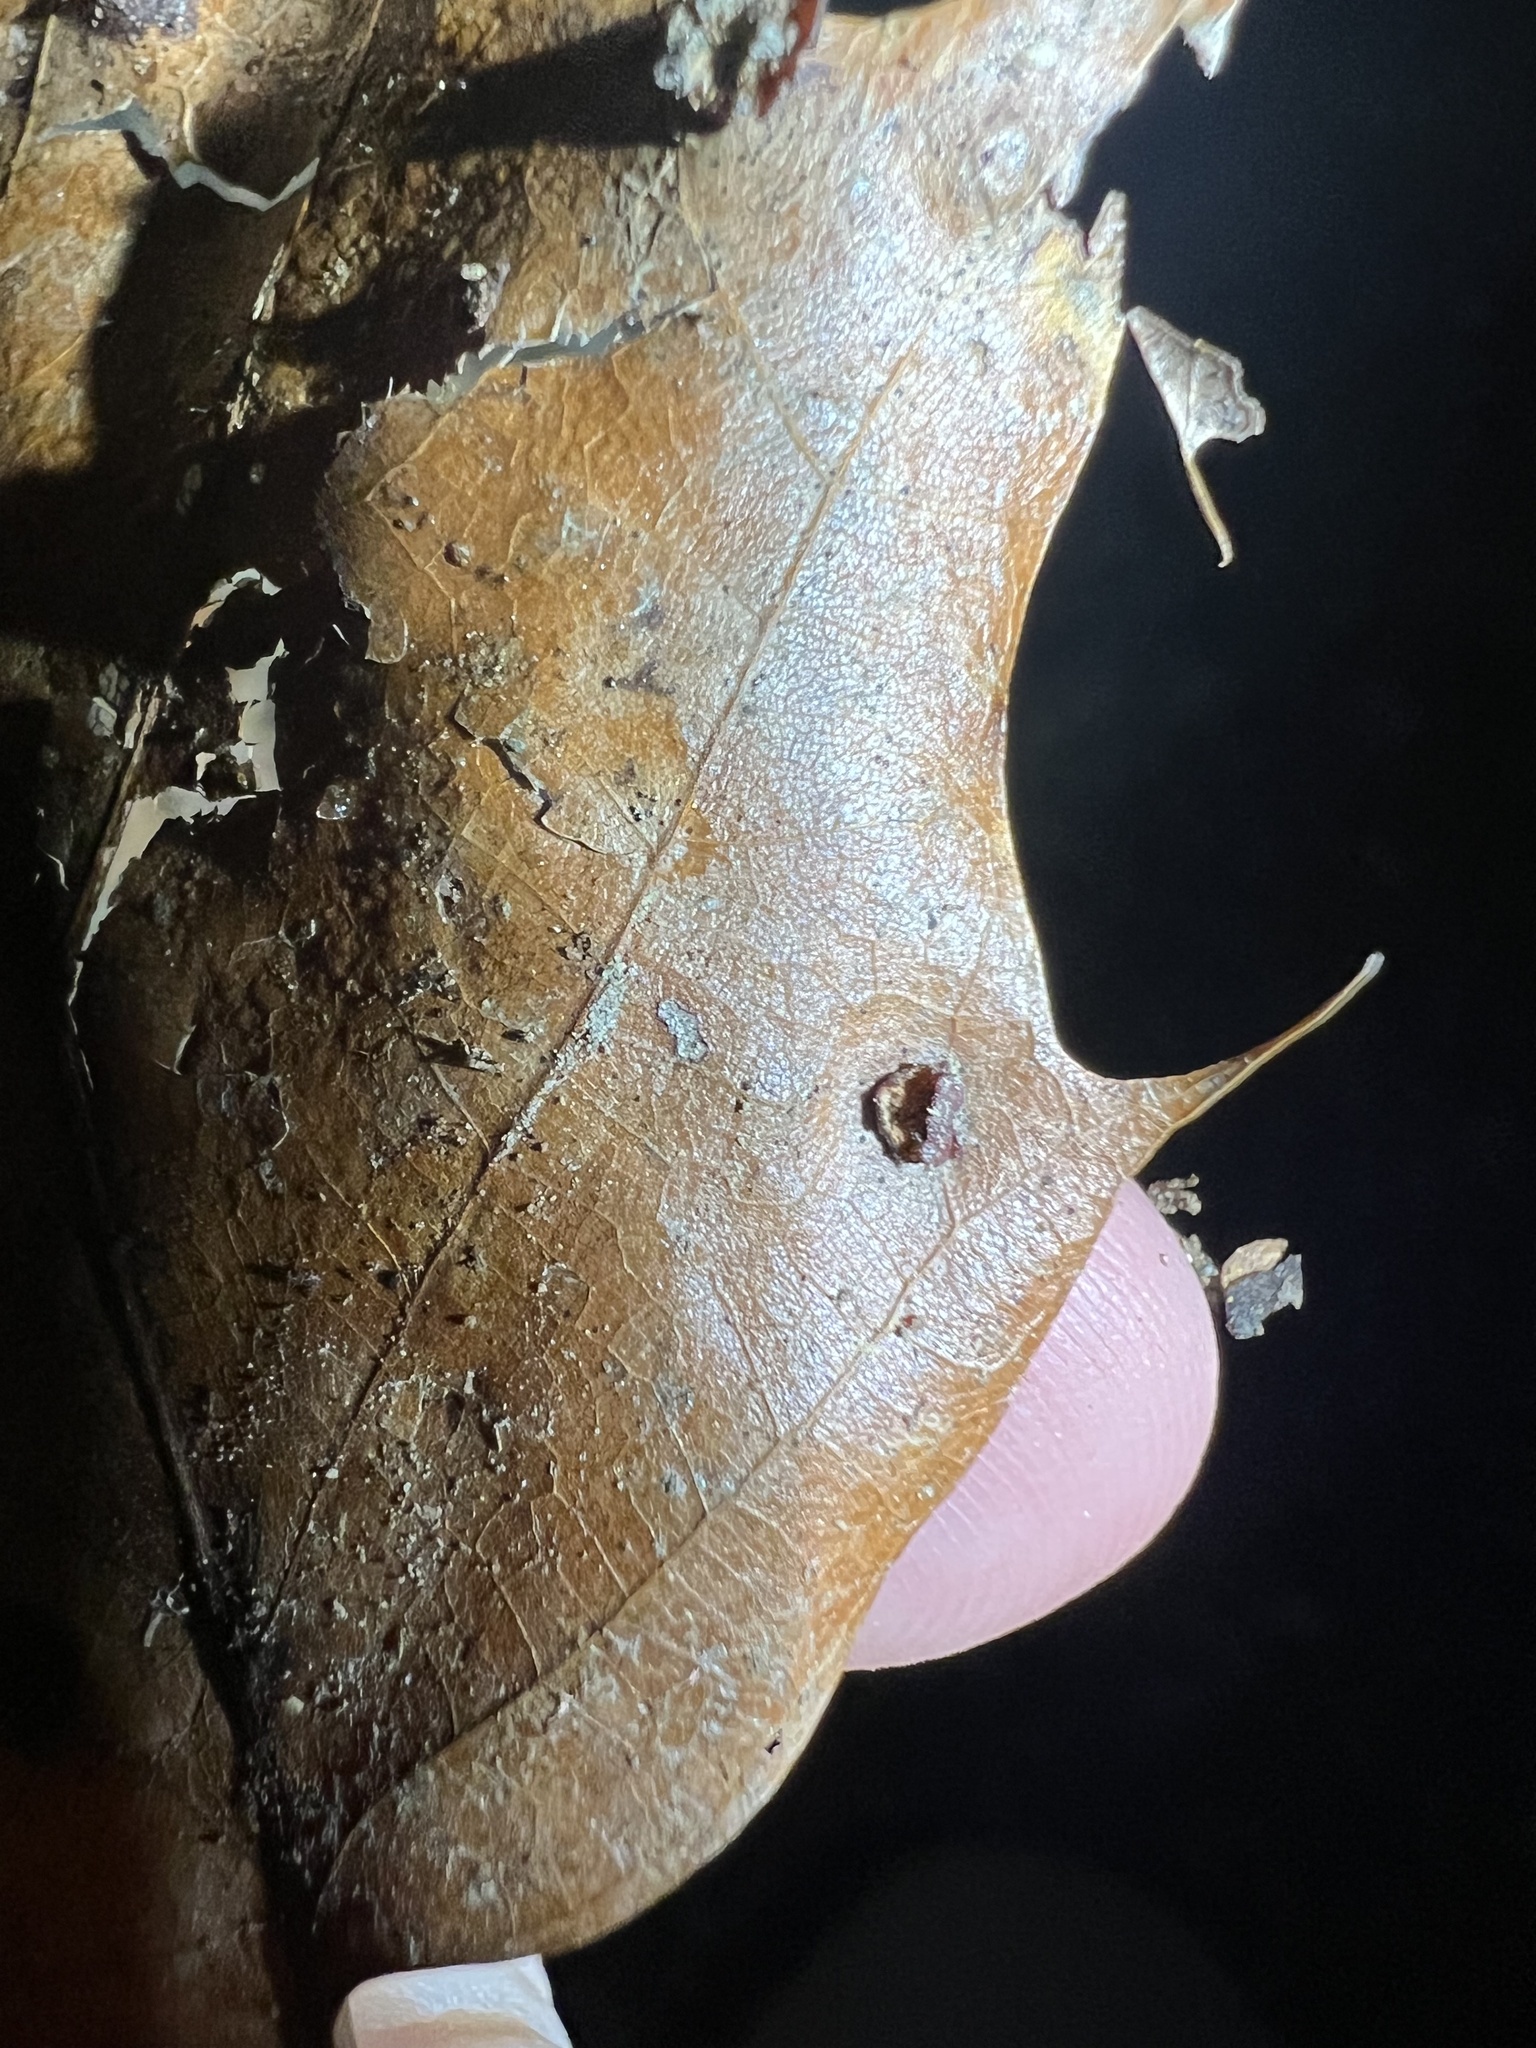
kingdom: Animalia
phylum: Arthropoda
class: Insecta
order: Diptera
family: Cecidomyiidae
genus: Polystepha
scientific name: Polystepha pilulae
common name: Oak leaf gall midge
